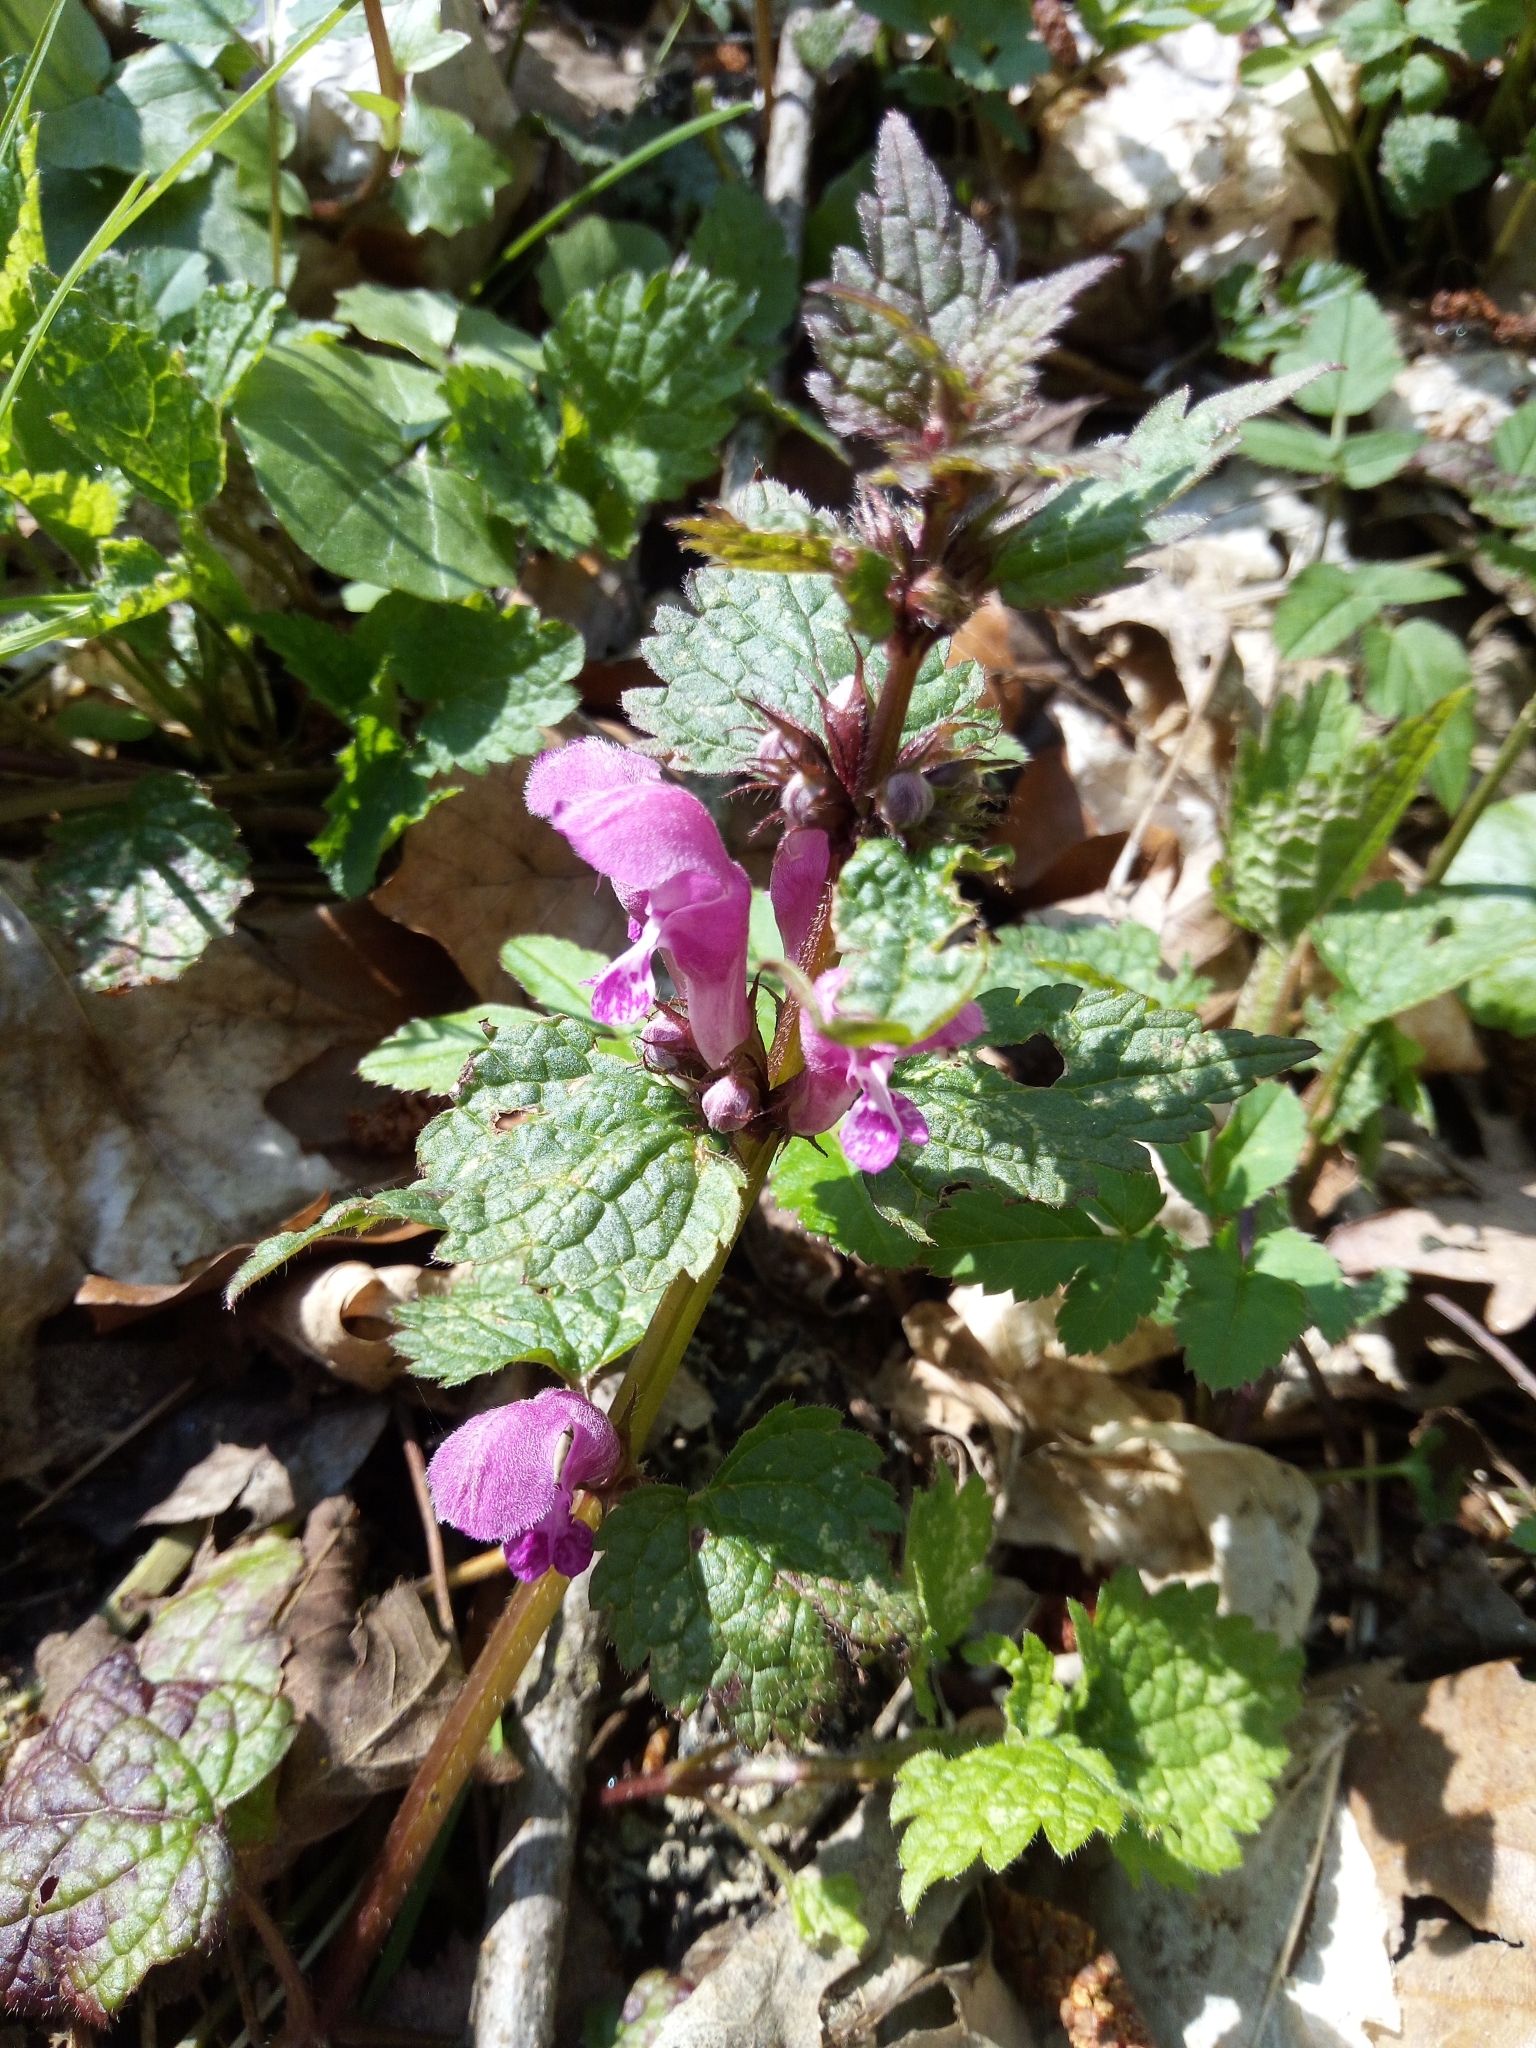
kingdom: Plantae
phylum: Tracheophyta
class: Magnoliopsida
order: Lamiales
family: Lamiaceae
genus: Lamium
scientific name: Lamium maculatum
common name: Spotted dead-nettle
